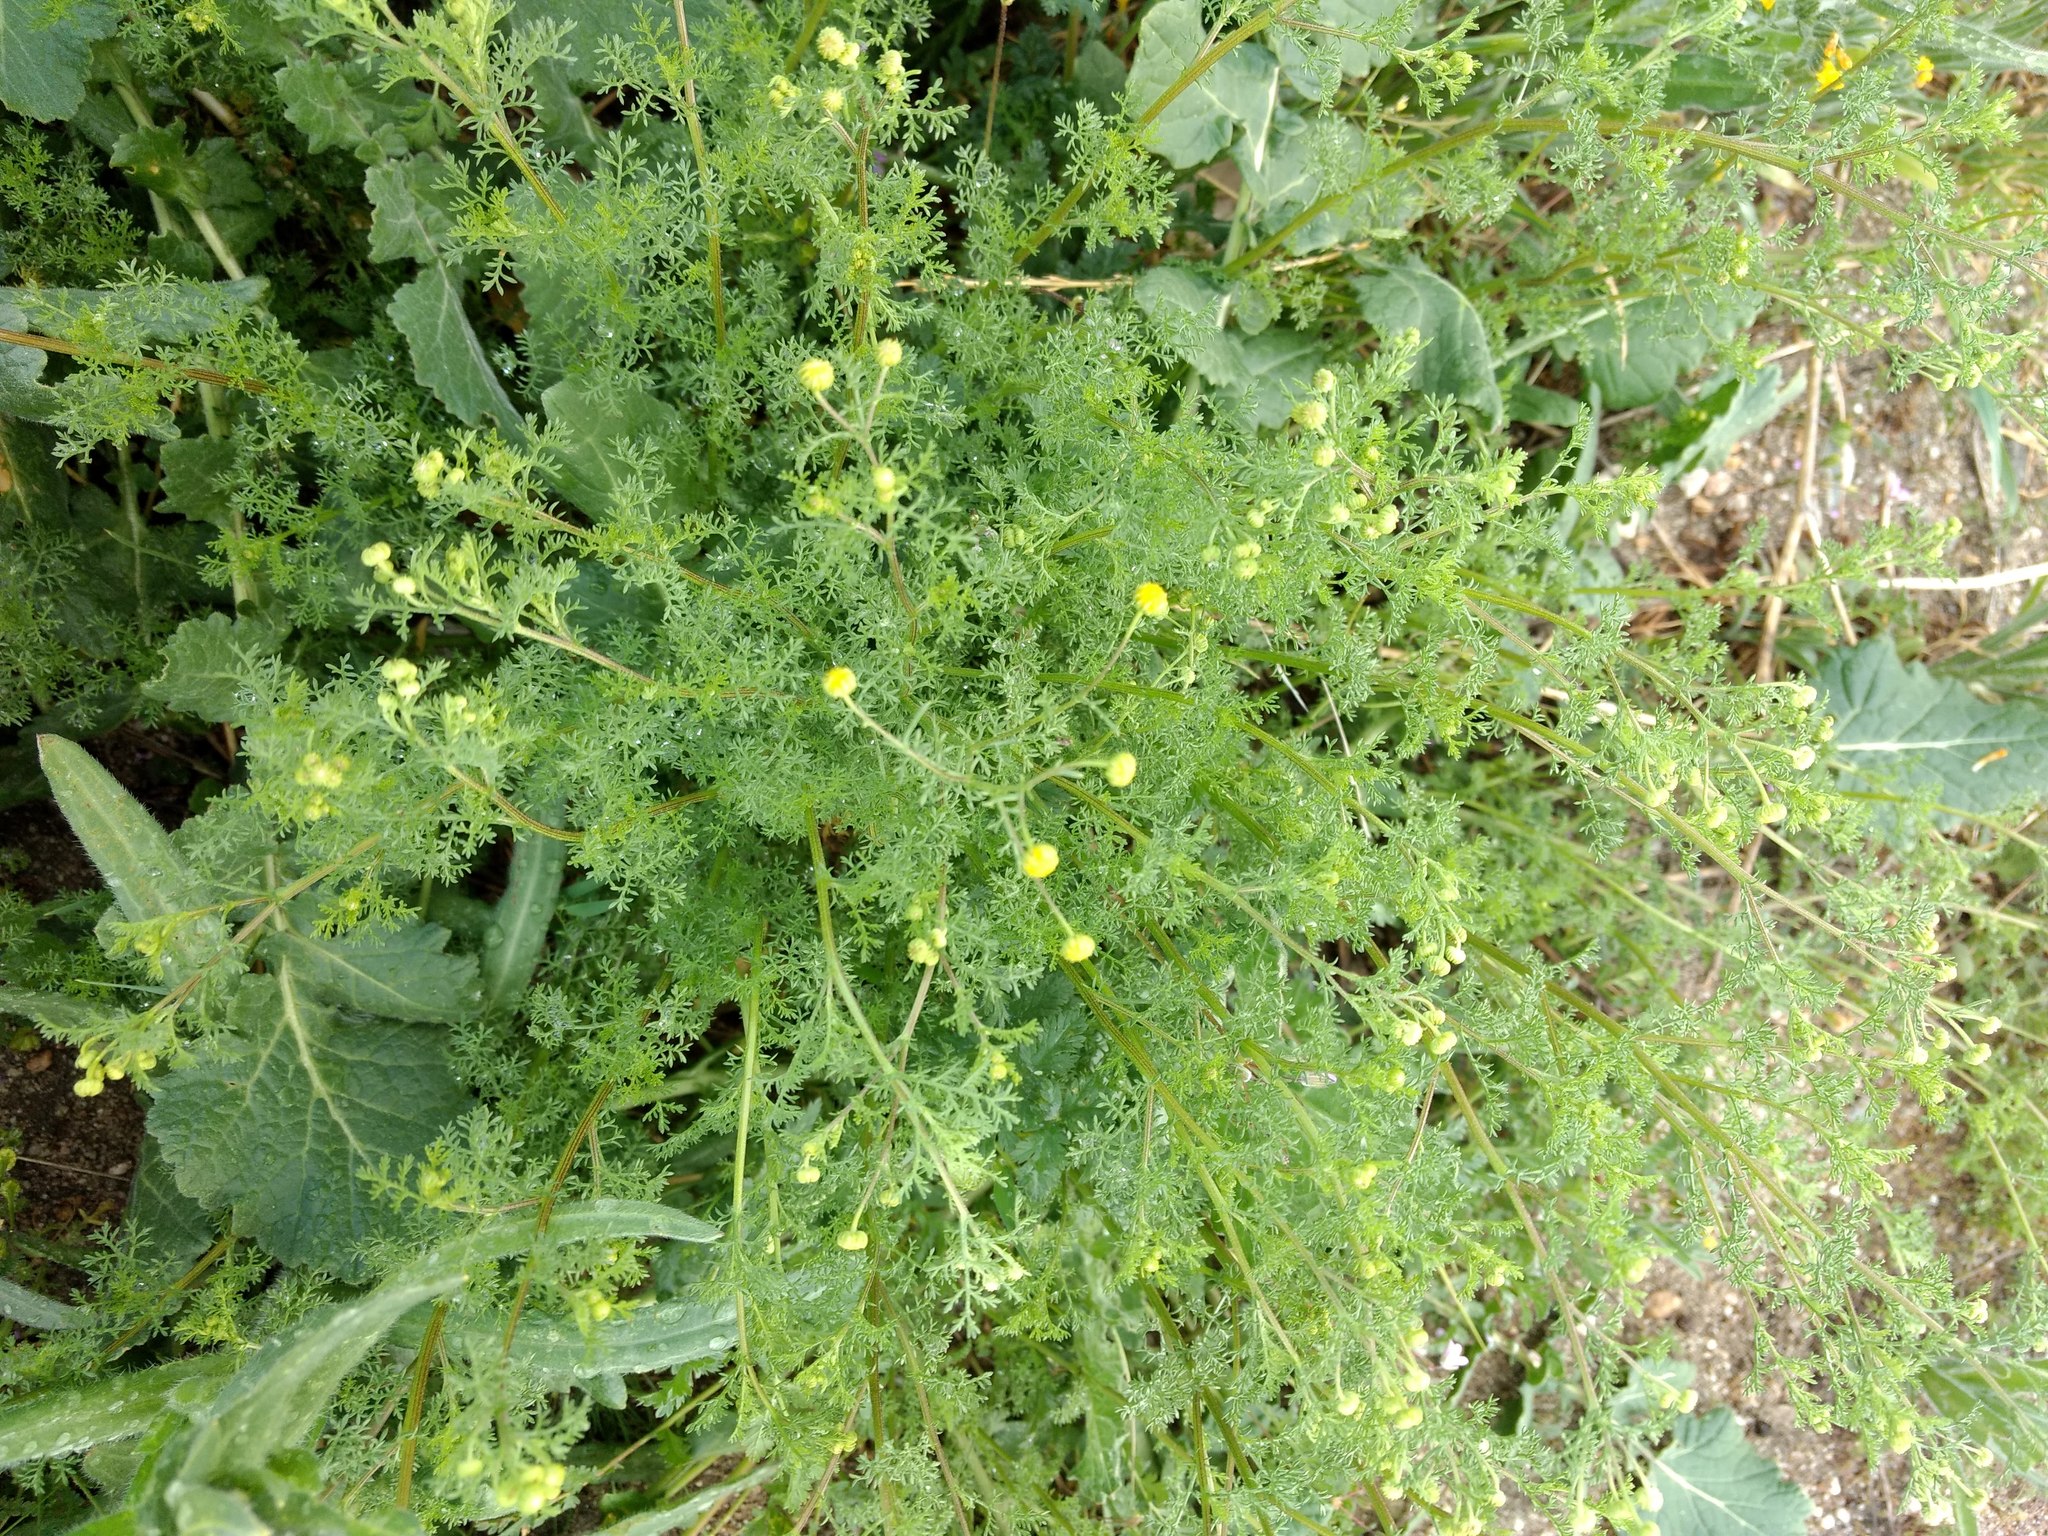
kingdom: Plantae
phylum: Tracheophyta
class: Magnoliopsida
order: Asterales
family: Asteraceae
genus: Oncosiphon
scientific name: Oncosiphon pilulifer
